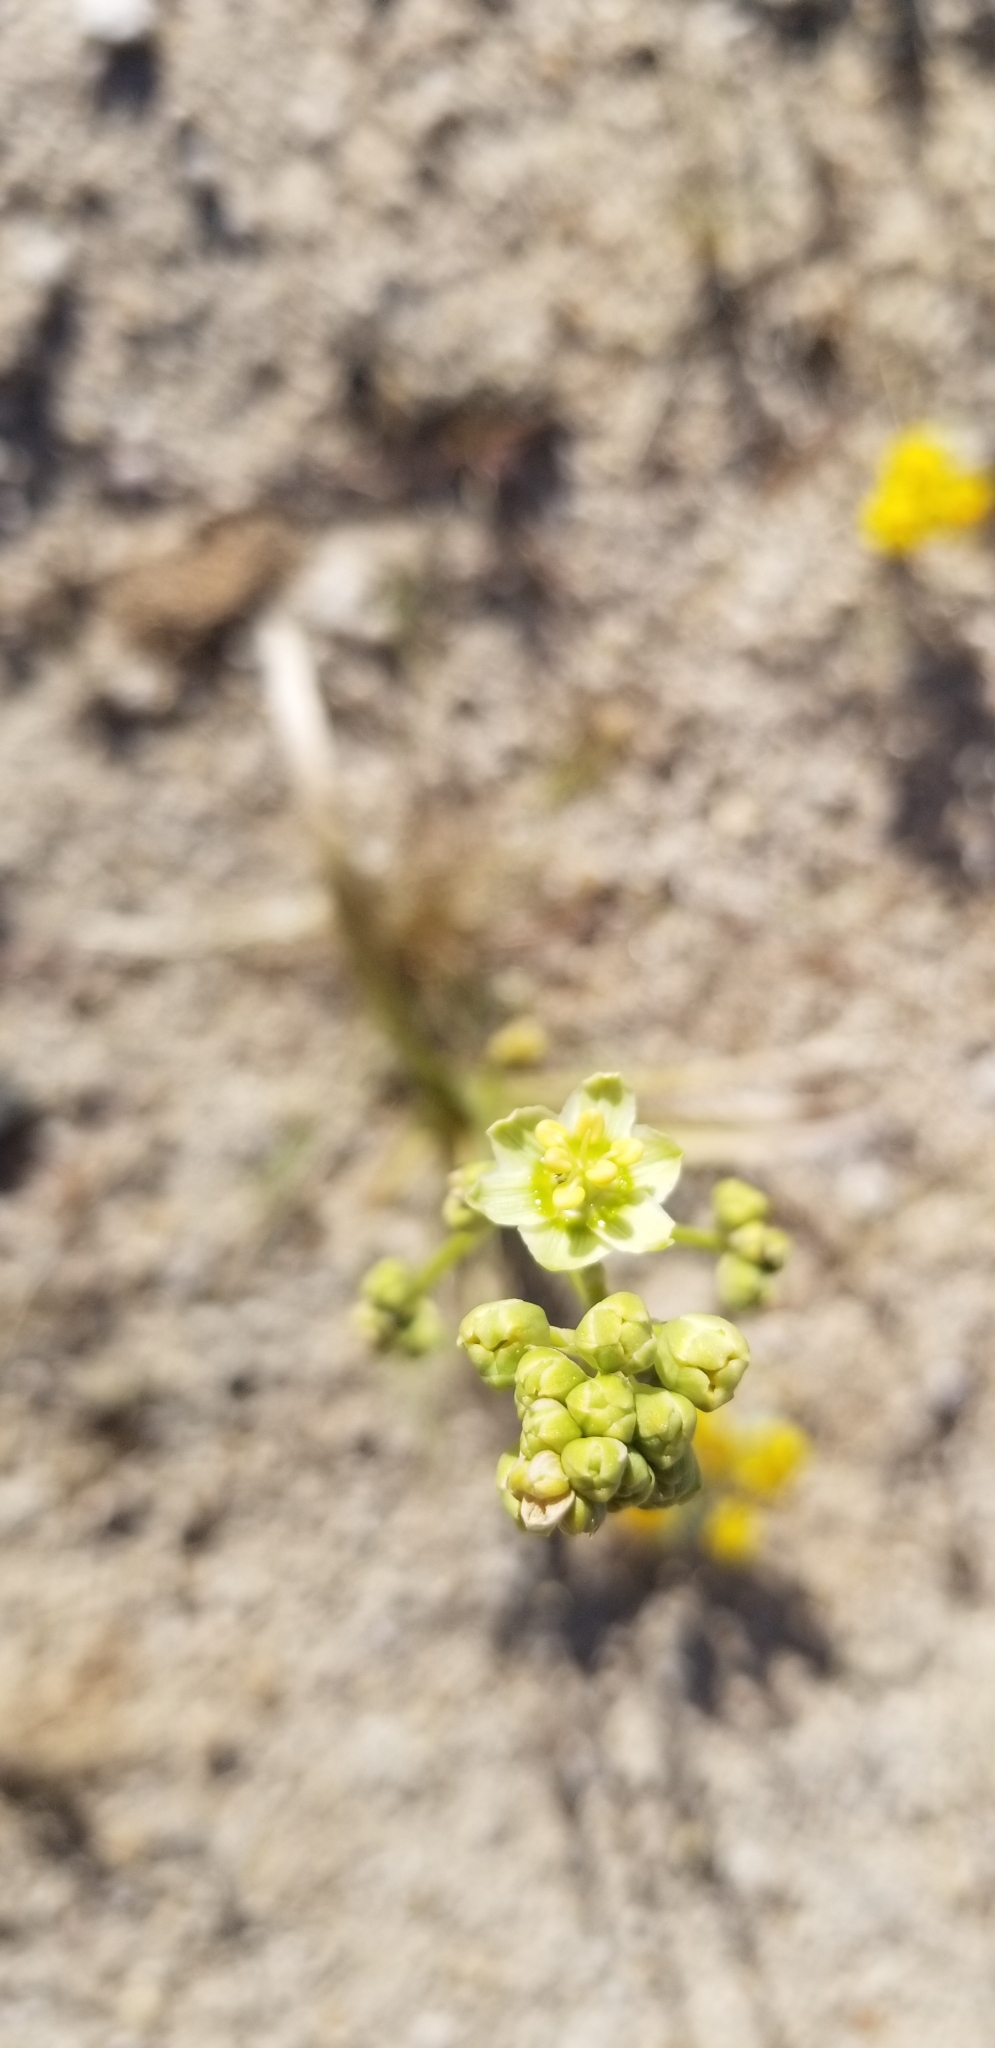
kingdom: Plantae
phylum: Tracheophyta
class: Liliopsida
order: Liliales
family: Melanthiaceae
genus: Toxicoscordion
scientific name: Toxicoscordion brevibracteatum
